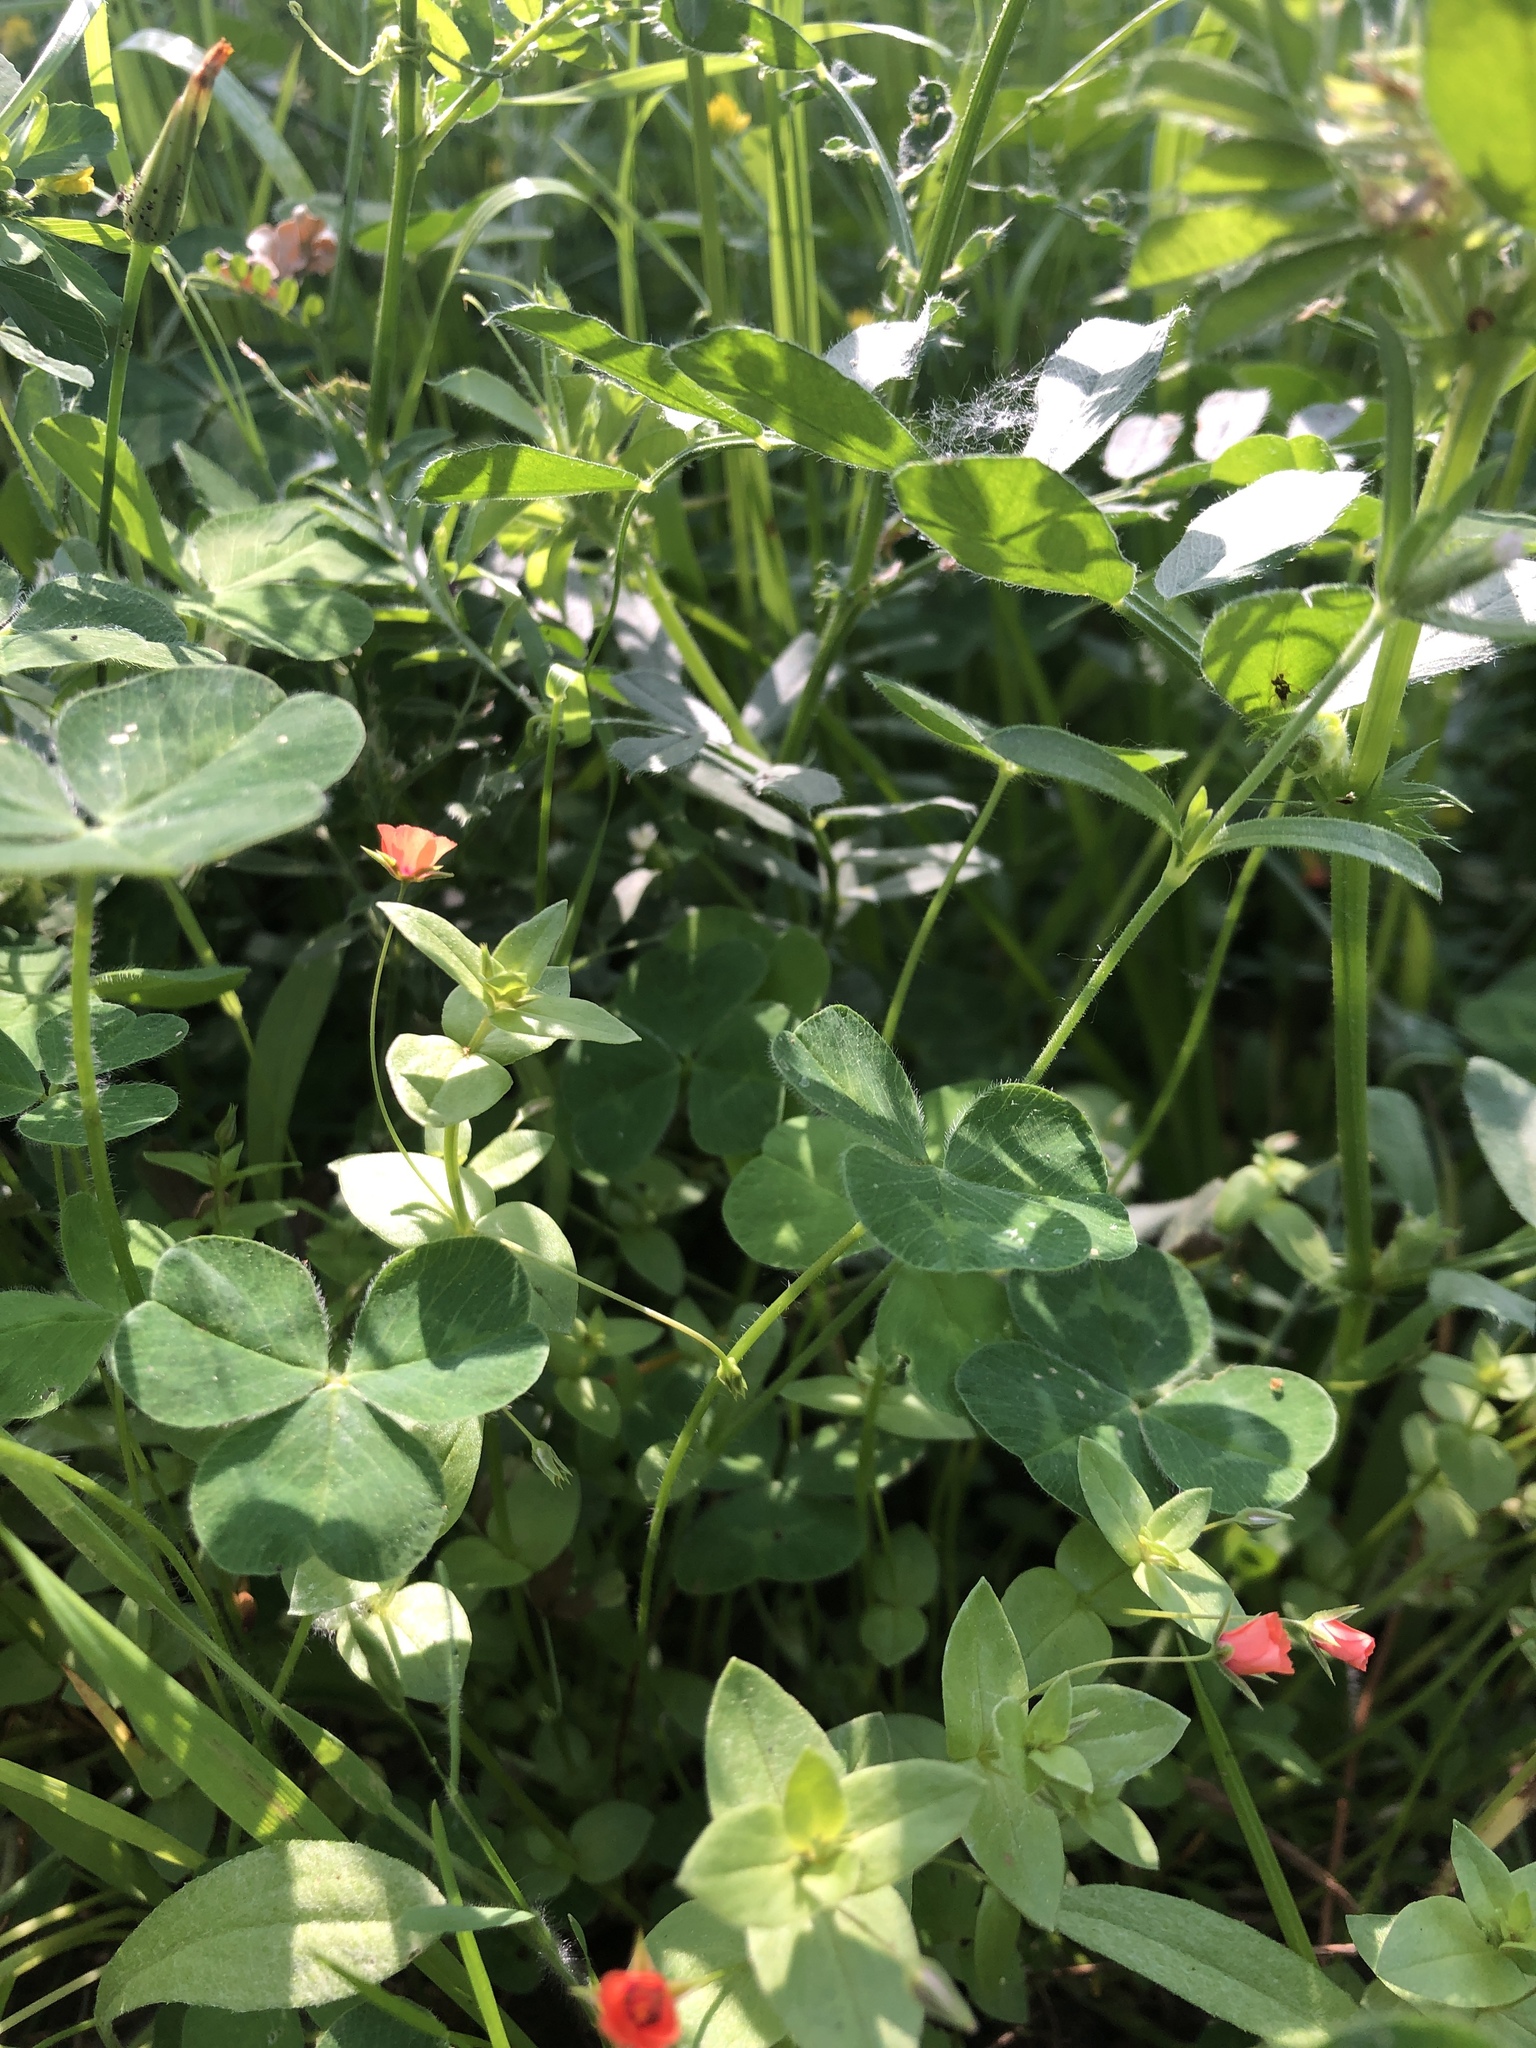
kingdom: Plantae
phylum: Tracheophyta
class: Magnoliopsida
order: Ericales
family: Primulaceae
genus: Lysimachia
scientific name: Lysimachia arvensis
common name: Scarlet pimpernel
